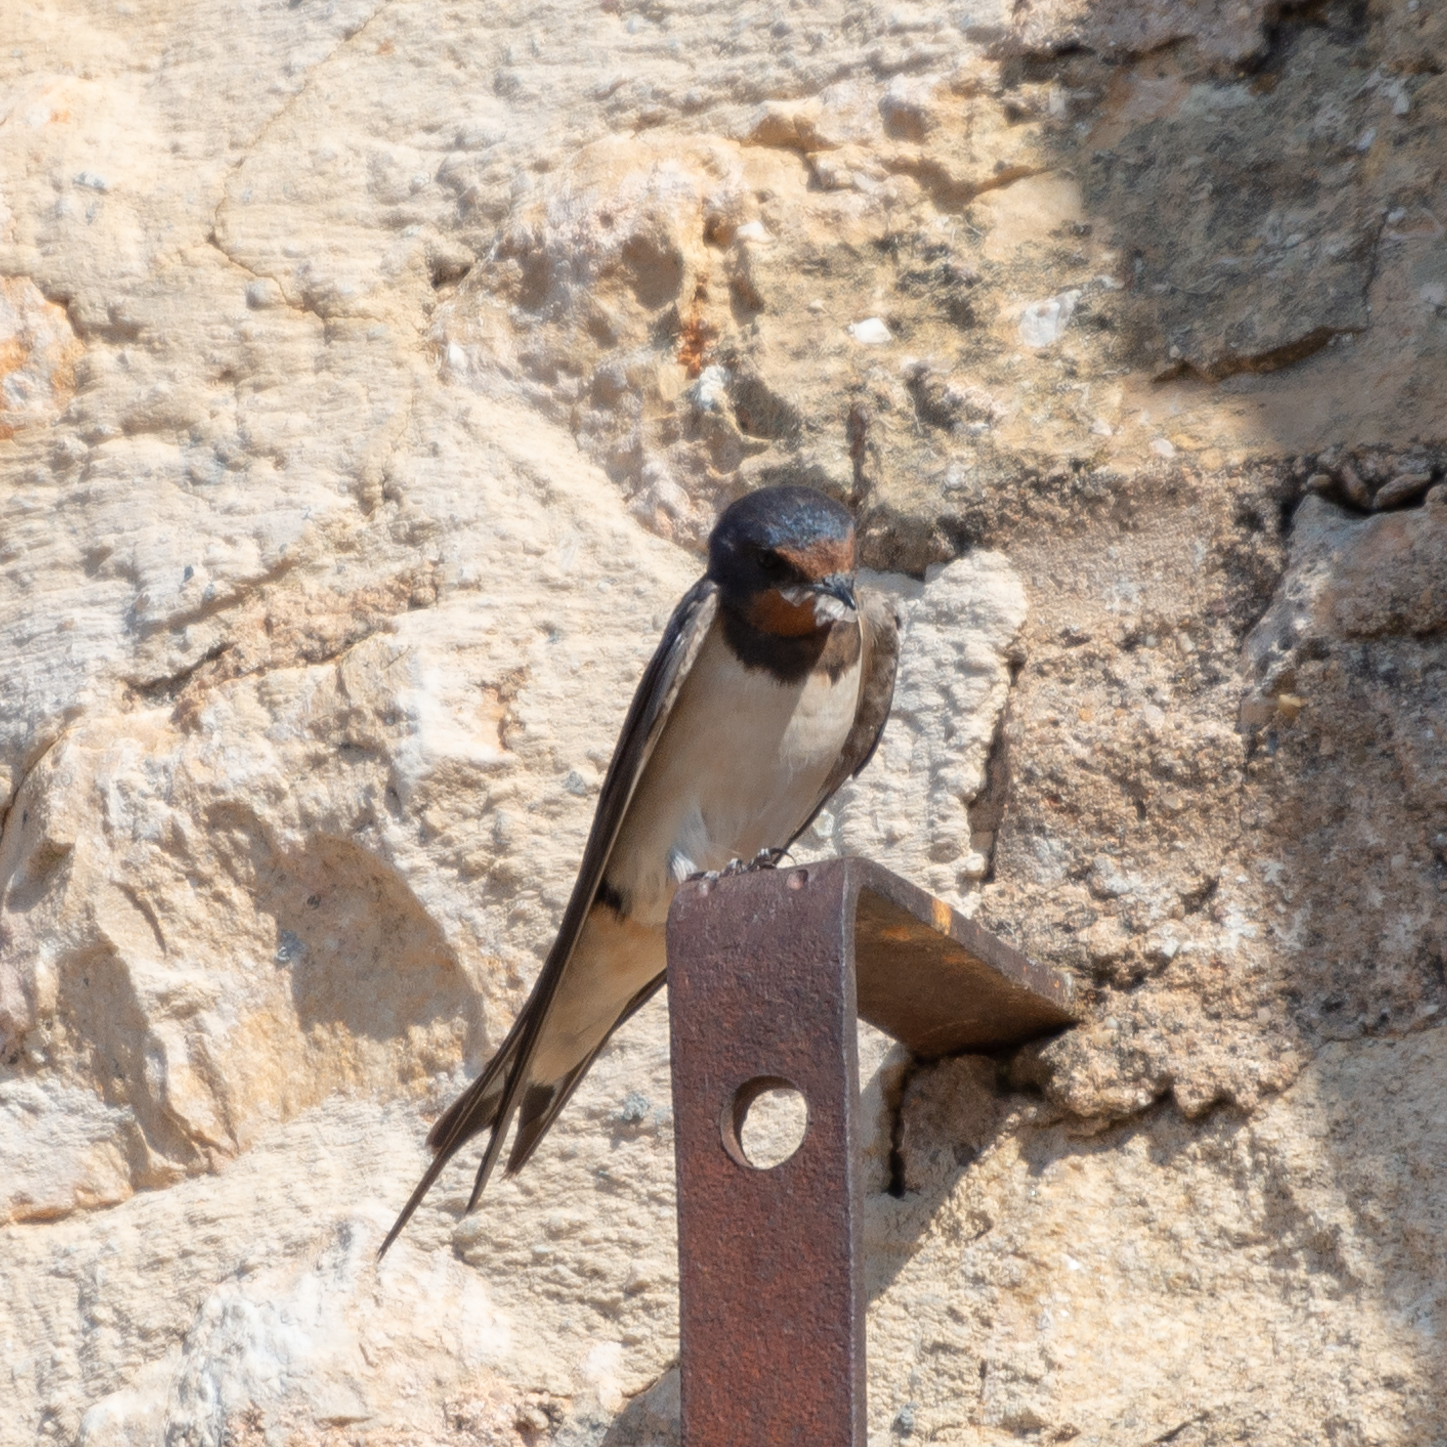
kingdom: Animalia
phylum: Chordata
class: Aves
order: Passeriformes
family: Hirundinidae
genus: Hirundo
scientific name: Hirundo rustica
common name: Barn swallow
